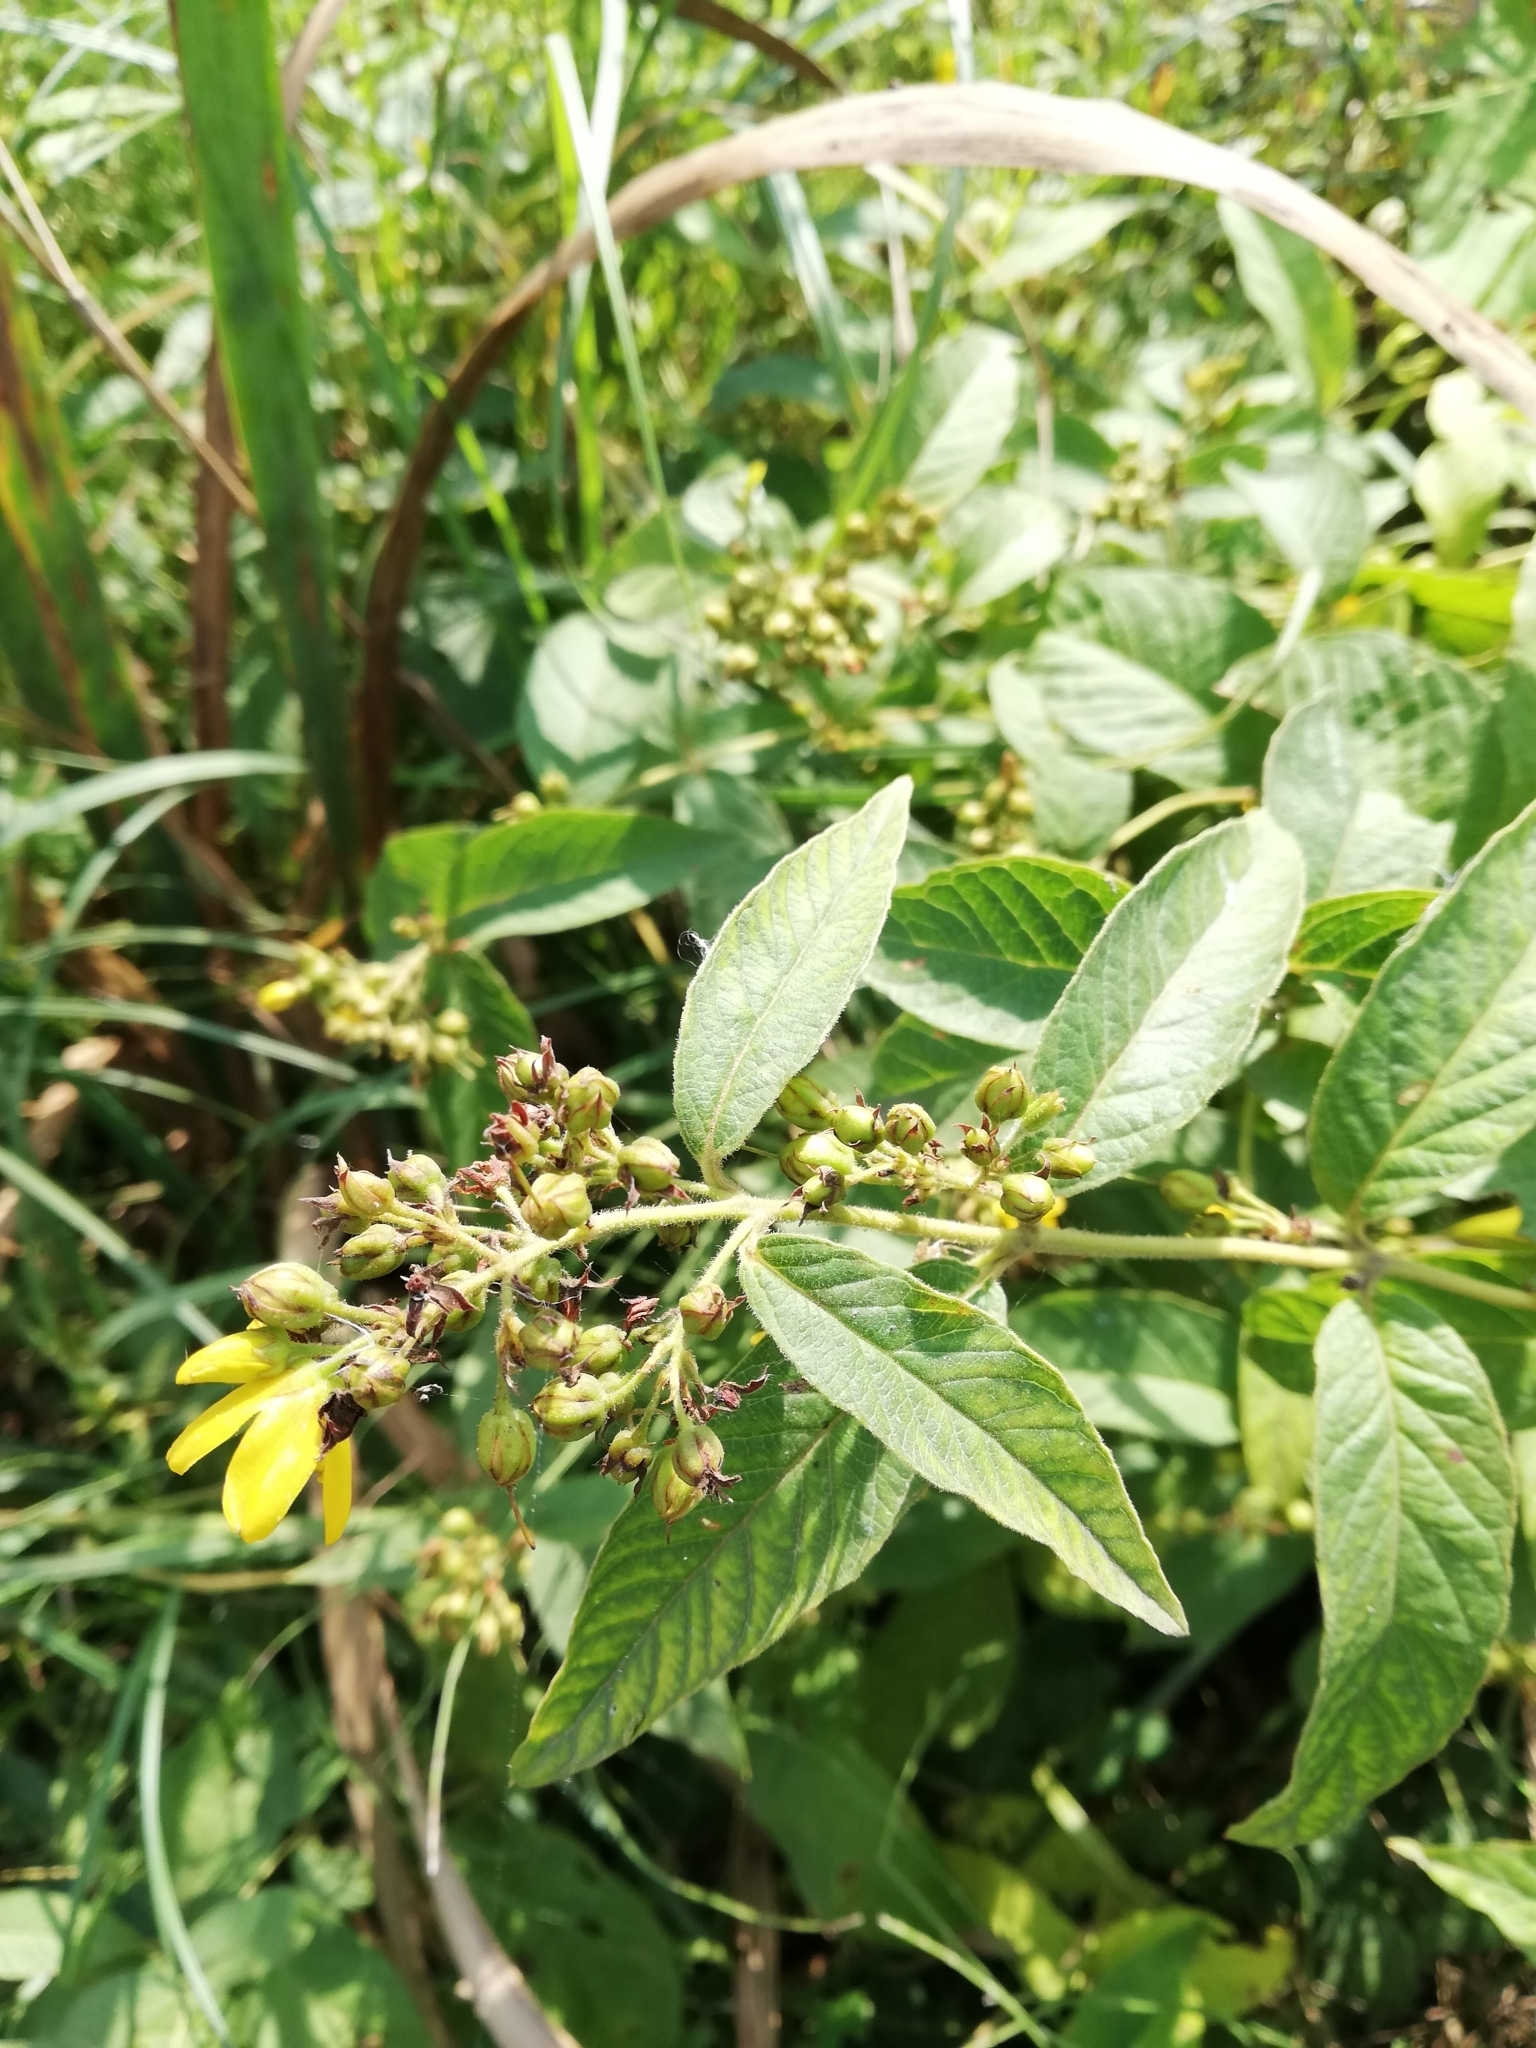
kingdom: Plantae
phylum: Tracheophyta
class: Magnoliopsida
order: Ericales
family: Primulaceae
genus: Lysimachia
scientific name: Lysimachia vulgaris
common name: Yellow loosestrife
